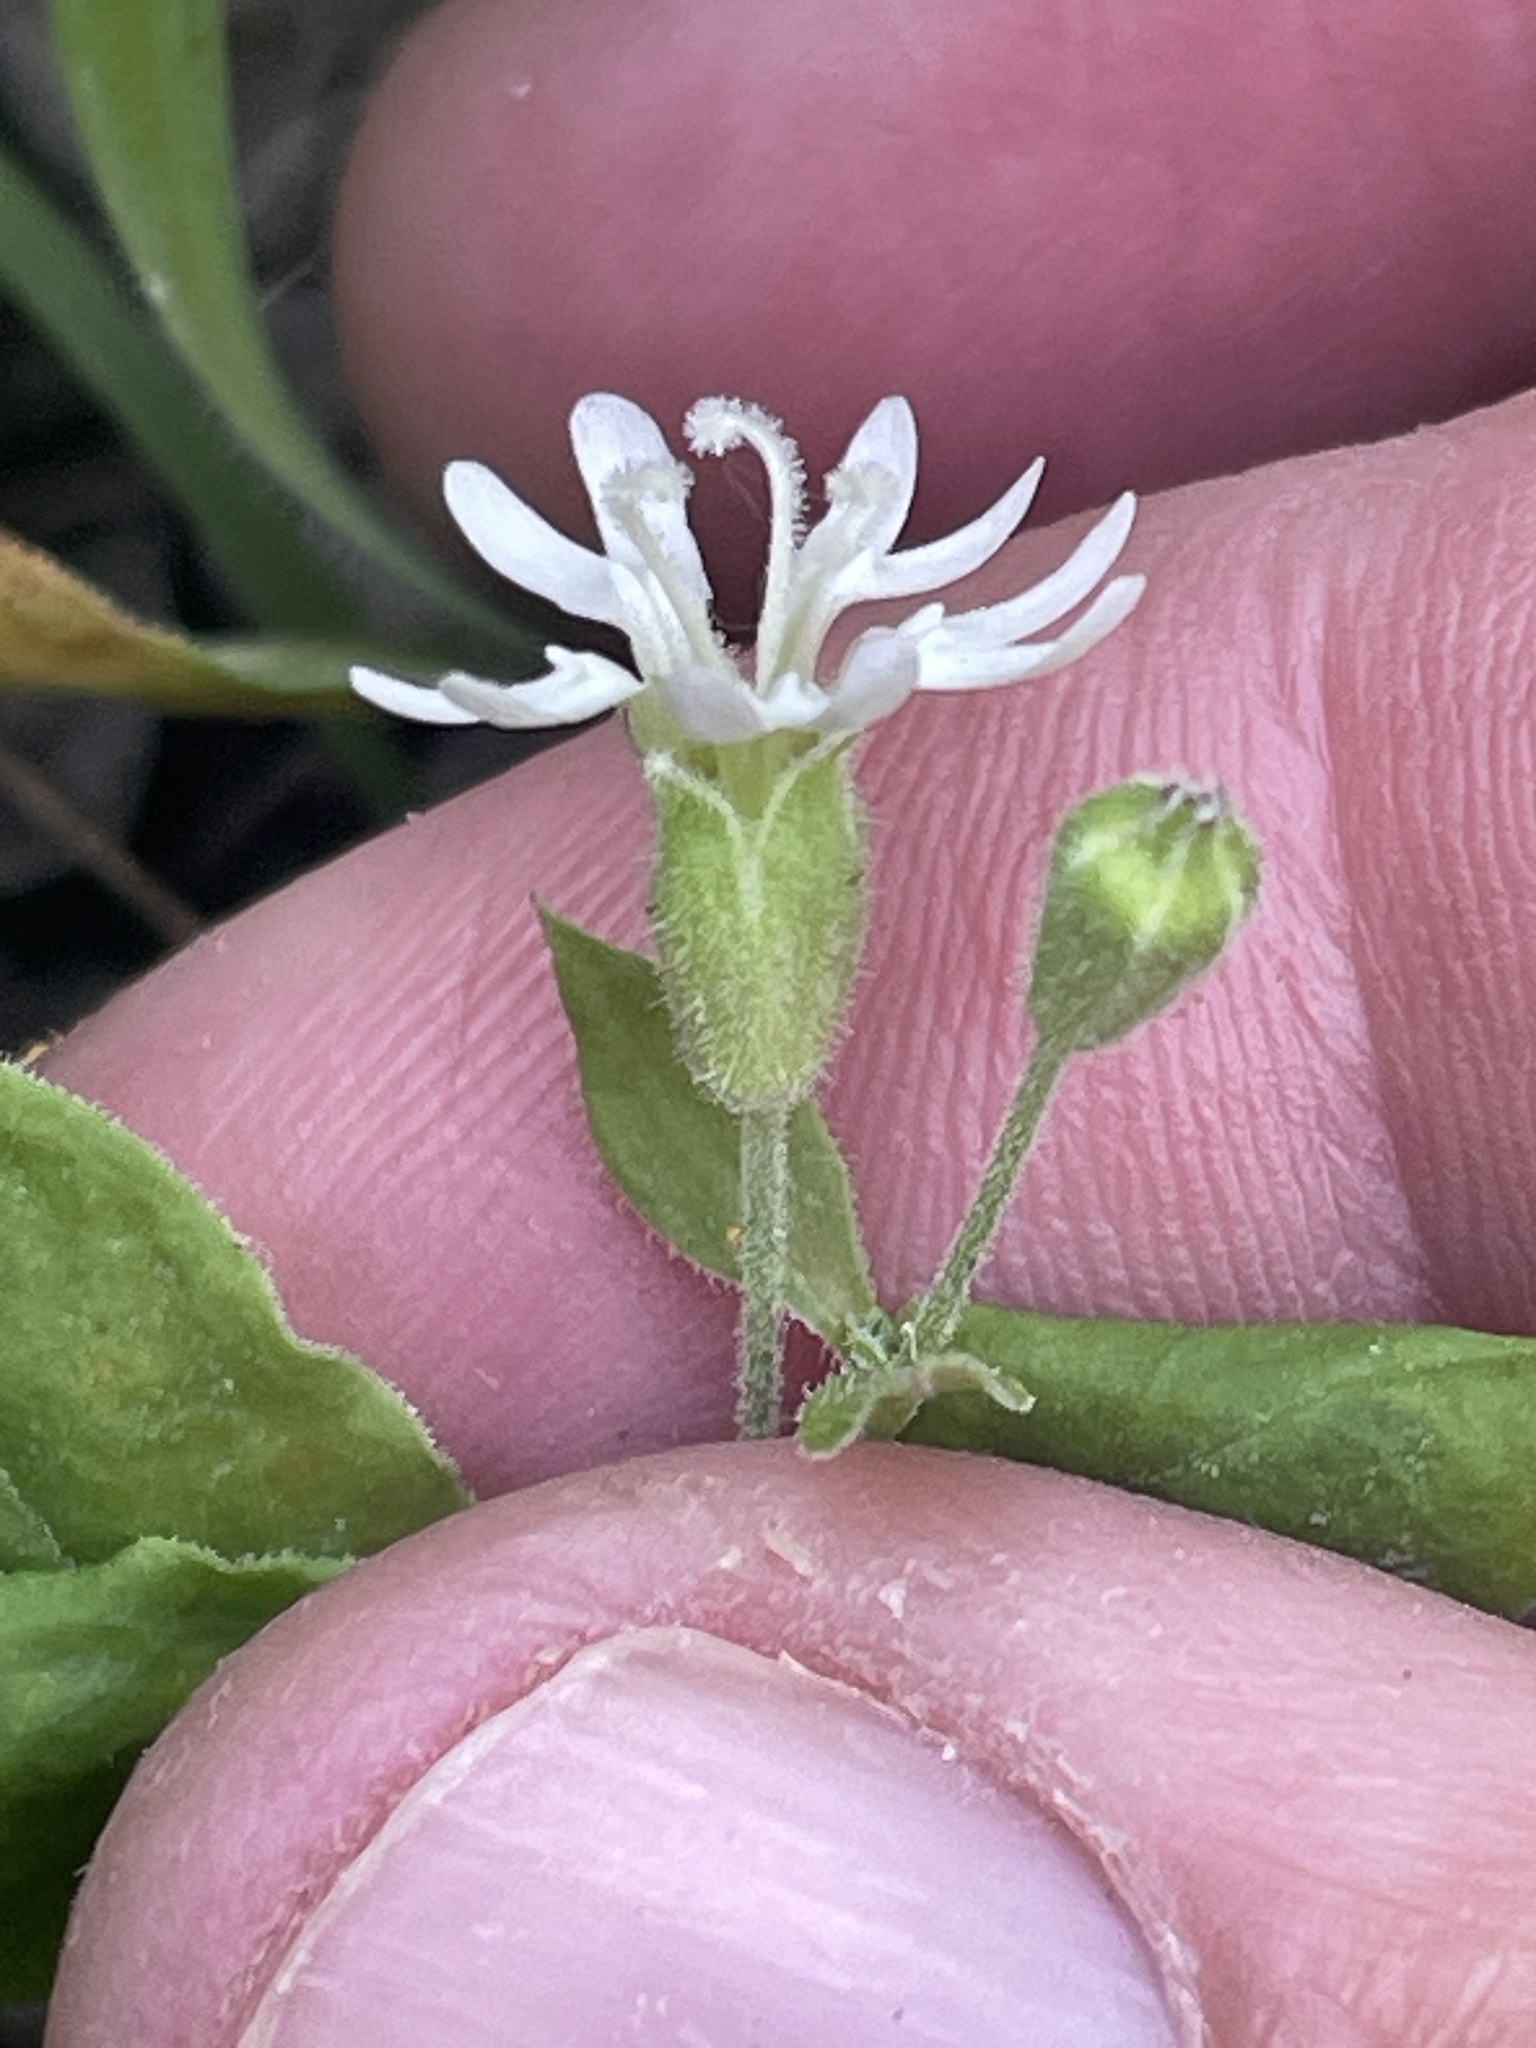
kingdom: Plantae
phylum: Tracheophyta
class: Magnoliopsida
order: Caryophyllales
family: Caryophyllaceae
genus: Silene
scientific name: Silene menziesii
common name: Menzies's catchfly
